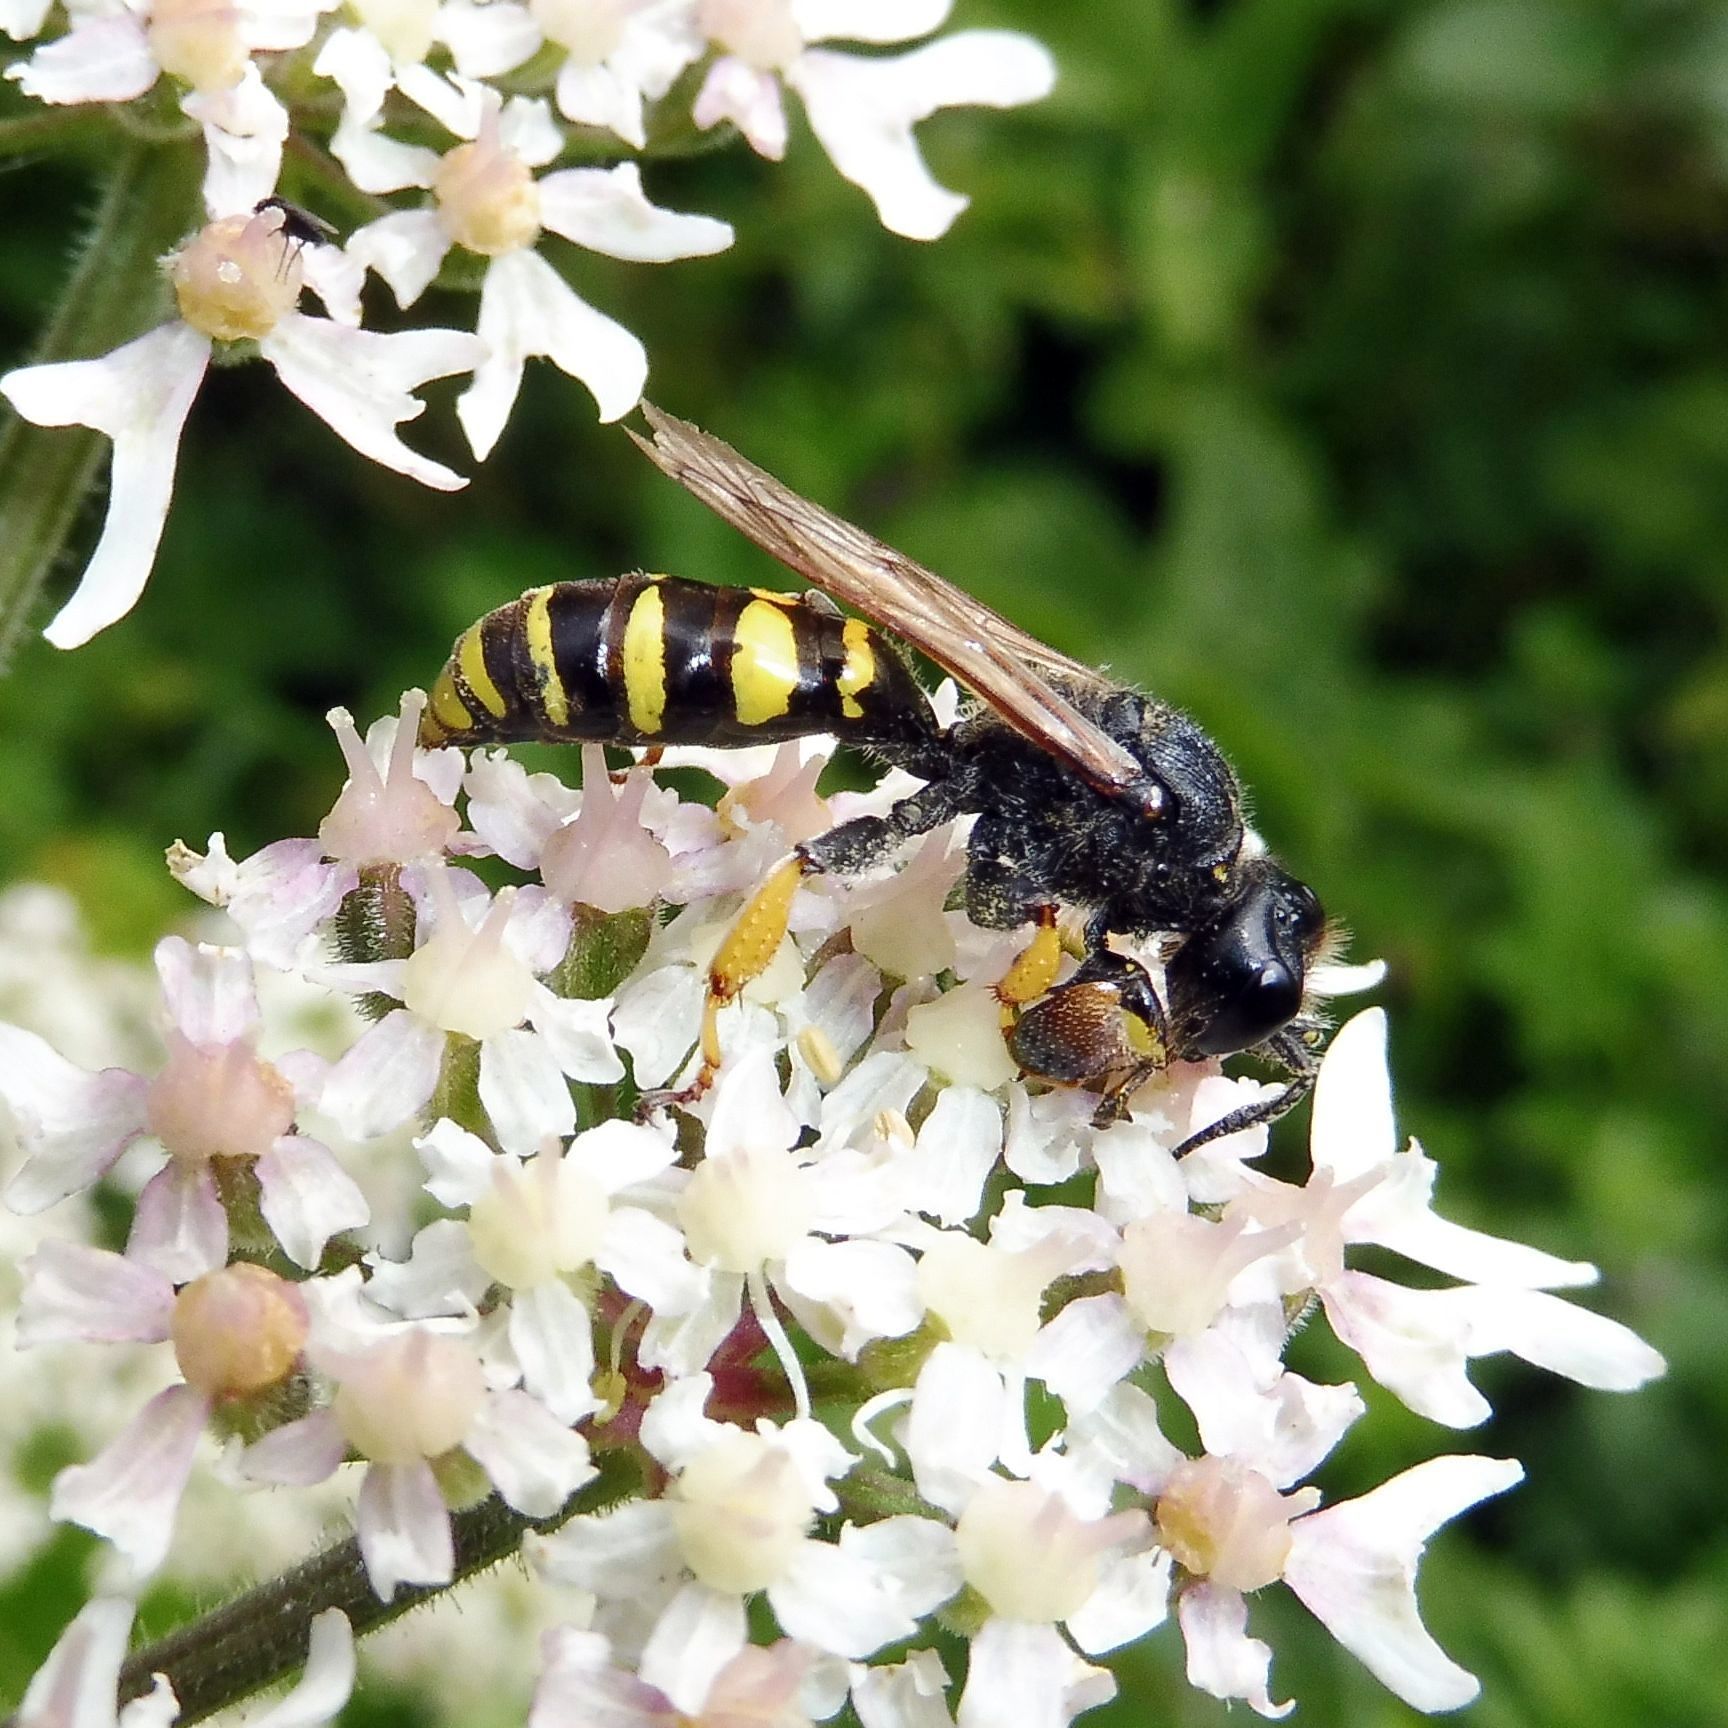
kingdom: Animalia
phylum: Arthropoda
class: Insecta
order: Hymenoptera
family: Crabronidae
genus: Crabro
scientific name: Crabro cribrarius
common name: Slender bodied digger wasp
